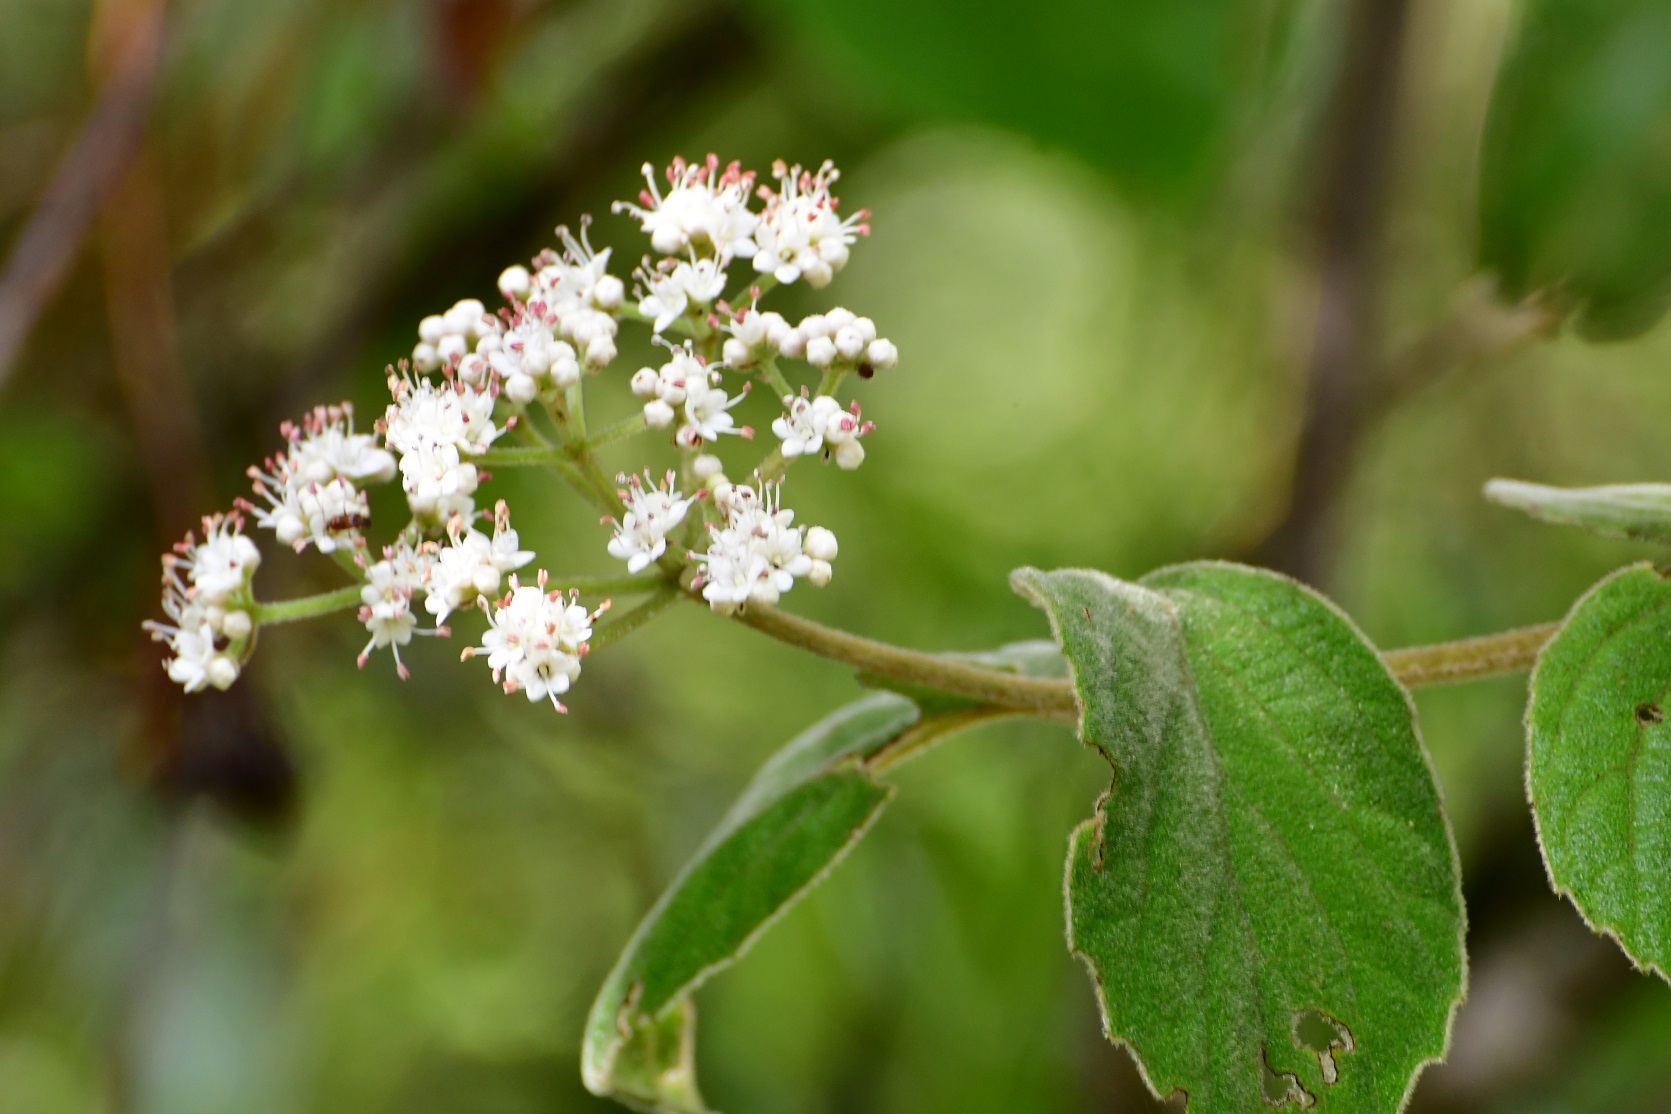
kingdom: Plantae
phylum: Tracheophyta
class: Magnoliopsida
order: Dipsacales
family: Viburnaceae
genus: Viburnum
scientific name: Viburnum jucundum
